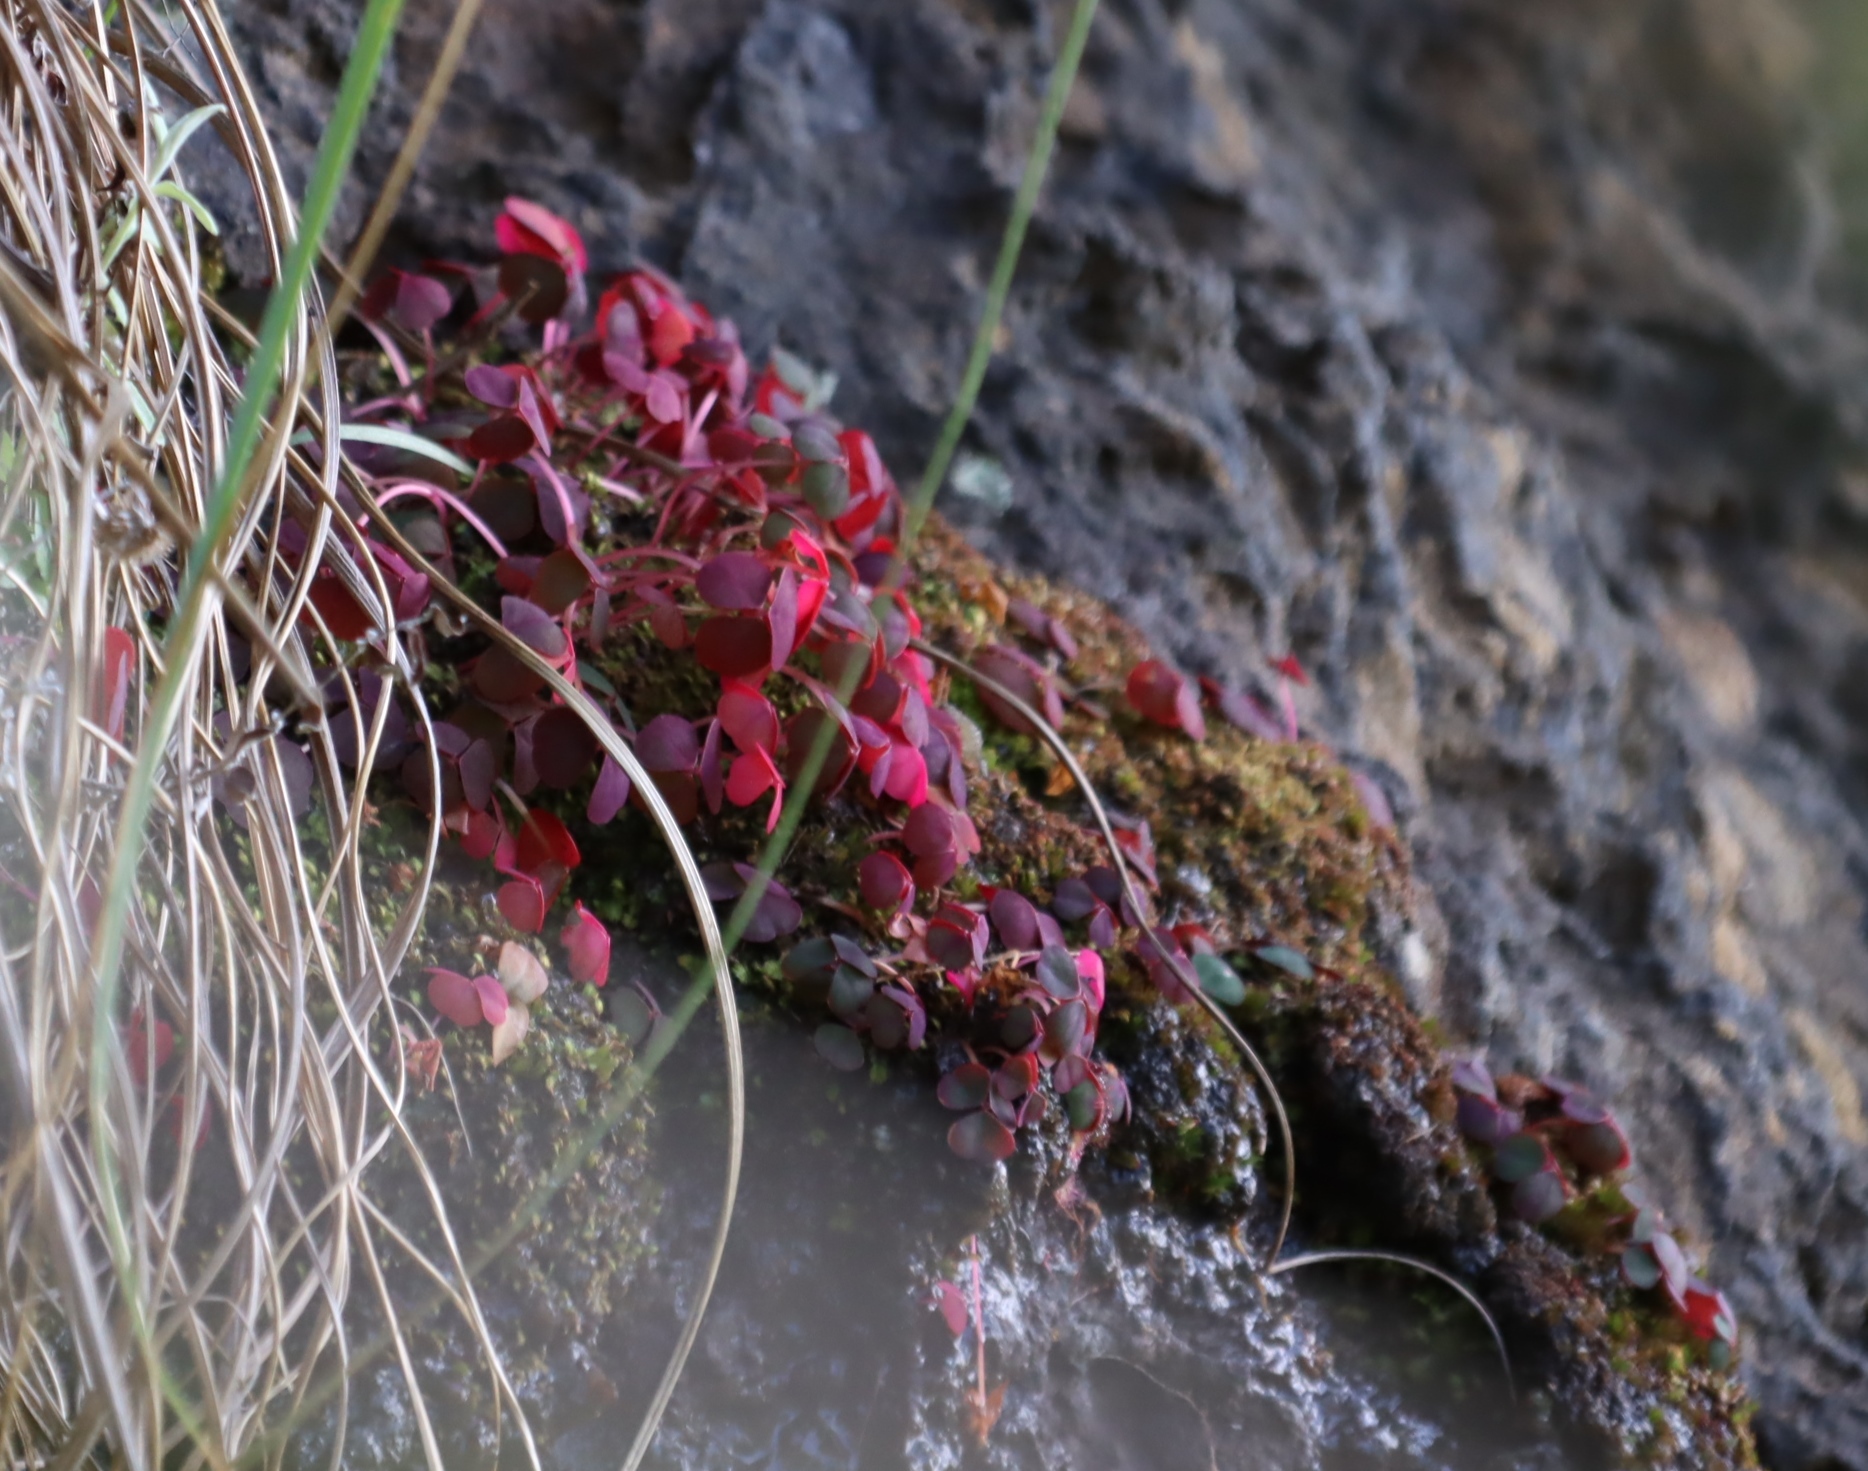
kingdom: Plantae
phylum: Tracheophyta
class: Magnoliopsida
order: Oxalidales
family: Oxalidaceae
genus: Oxalis
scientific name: Oxalis commutata
